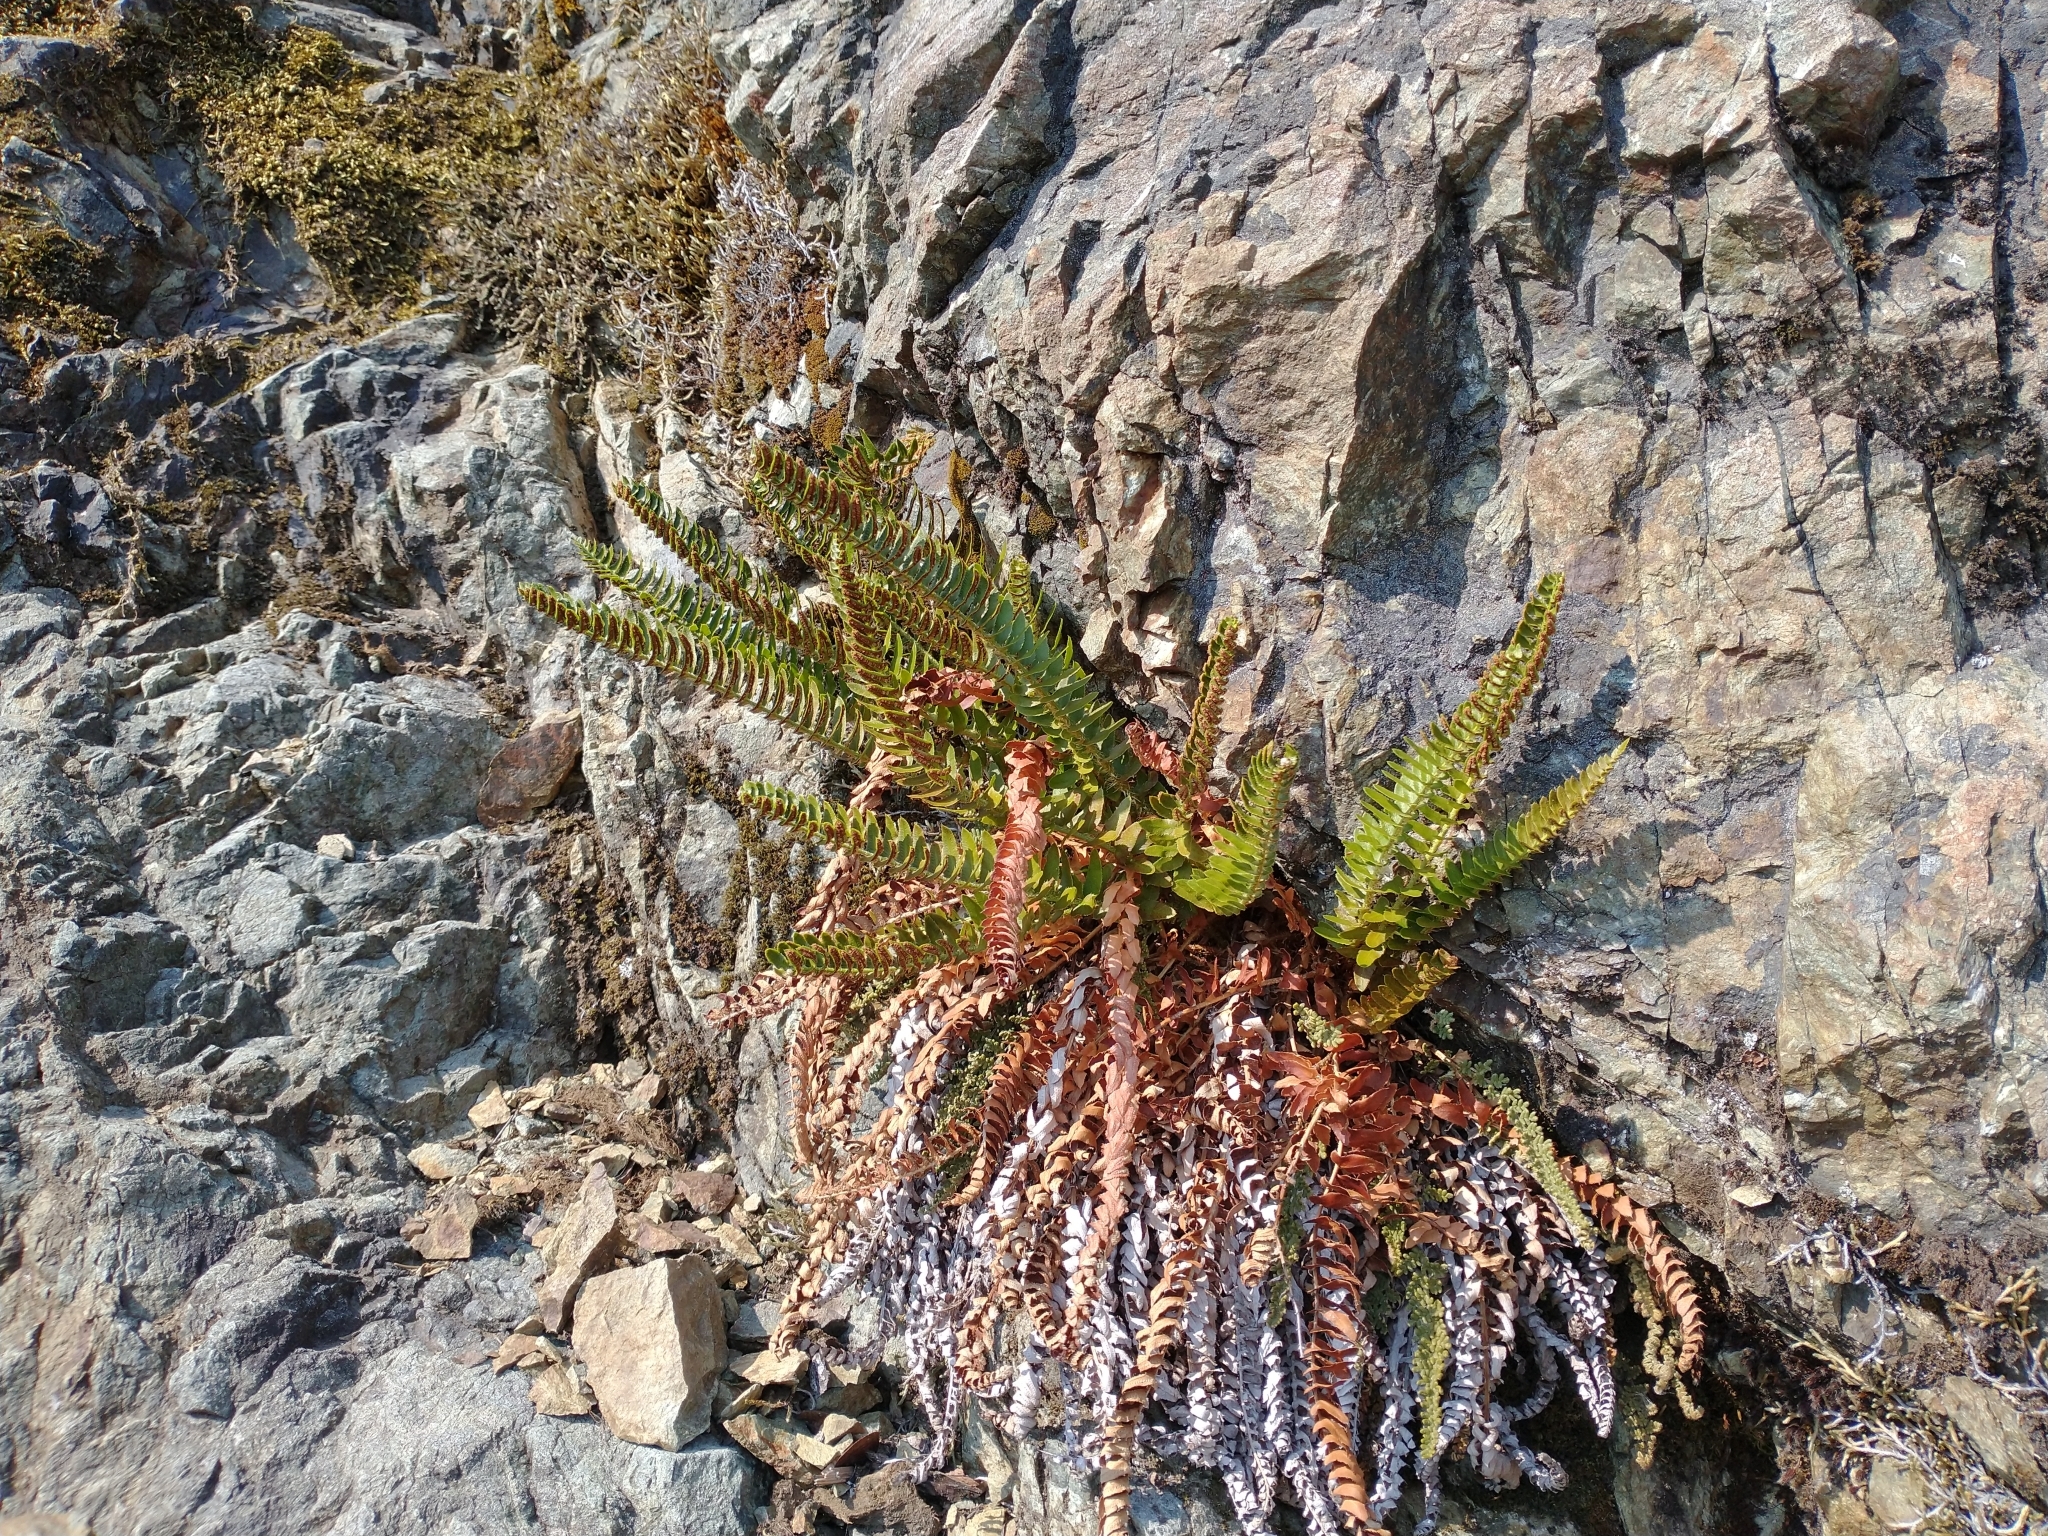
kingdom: Plantae
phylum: Tracheophyta
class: Polypodiopsida
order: Polypodiales
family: Dryopteridaceae
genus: Polystichum
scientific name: Polystichum imbricans
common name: Dwarf western sword fern
